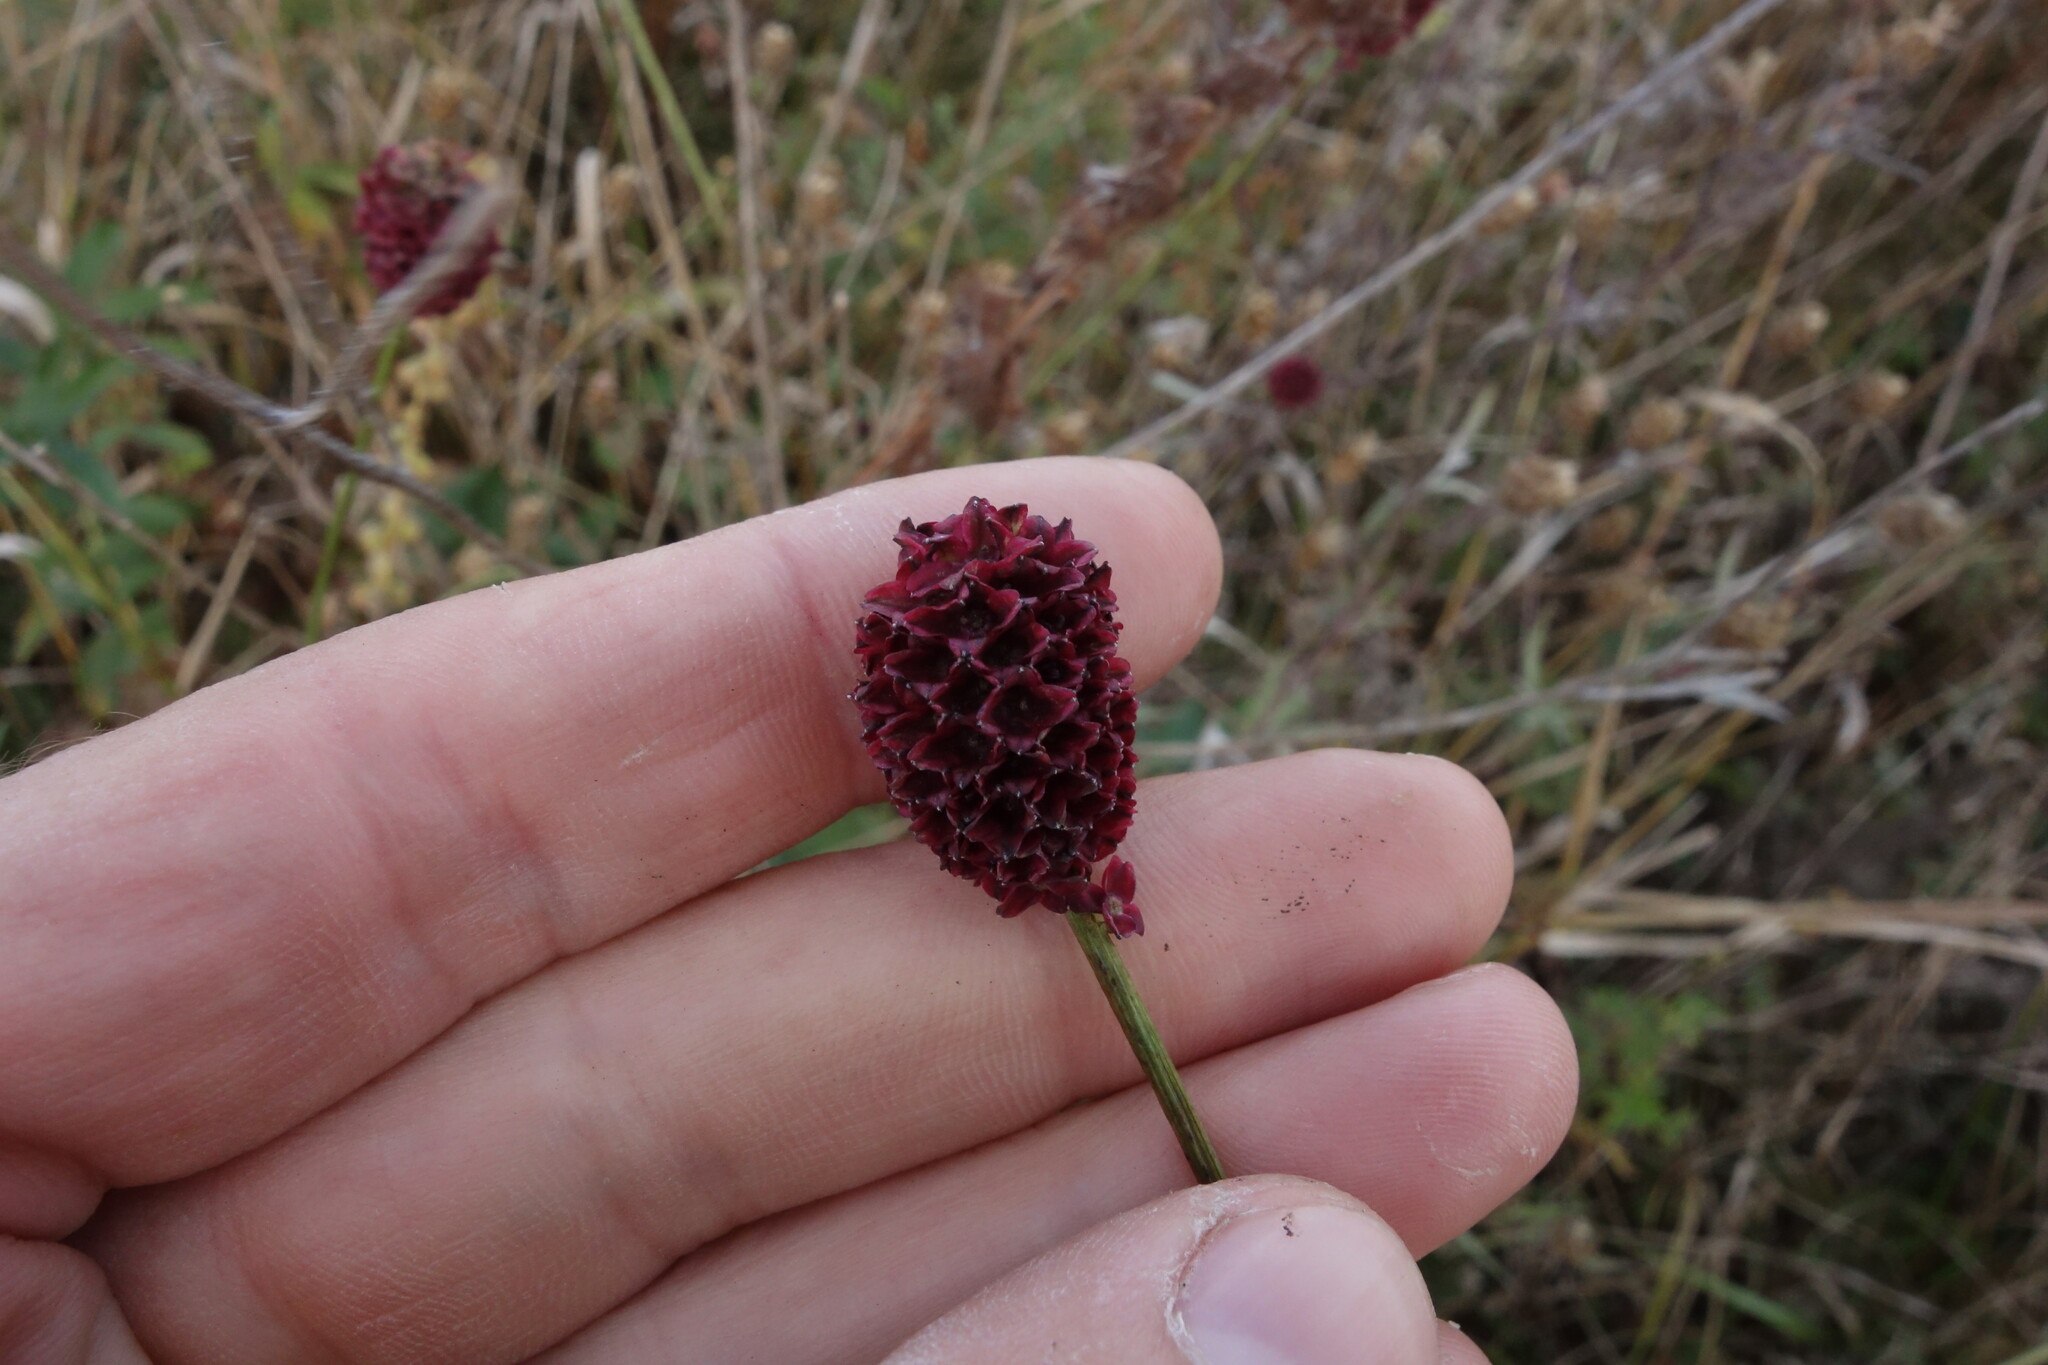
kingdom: Plantae
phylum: Tracheophyta
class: Magnoliopsida
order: Rosales
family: Rosaceae
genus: Sanguisorba
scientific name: Sanguisorba officinalis
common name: Great burnet
